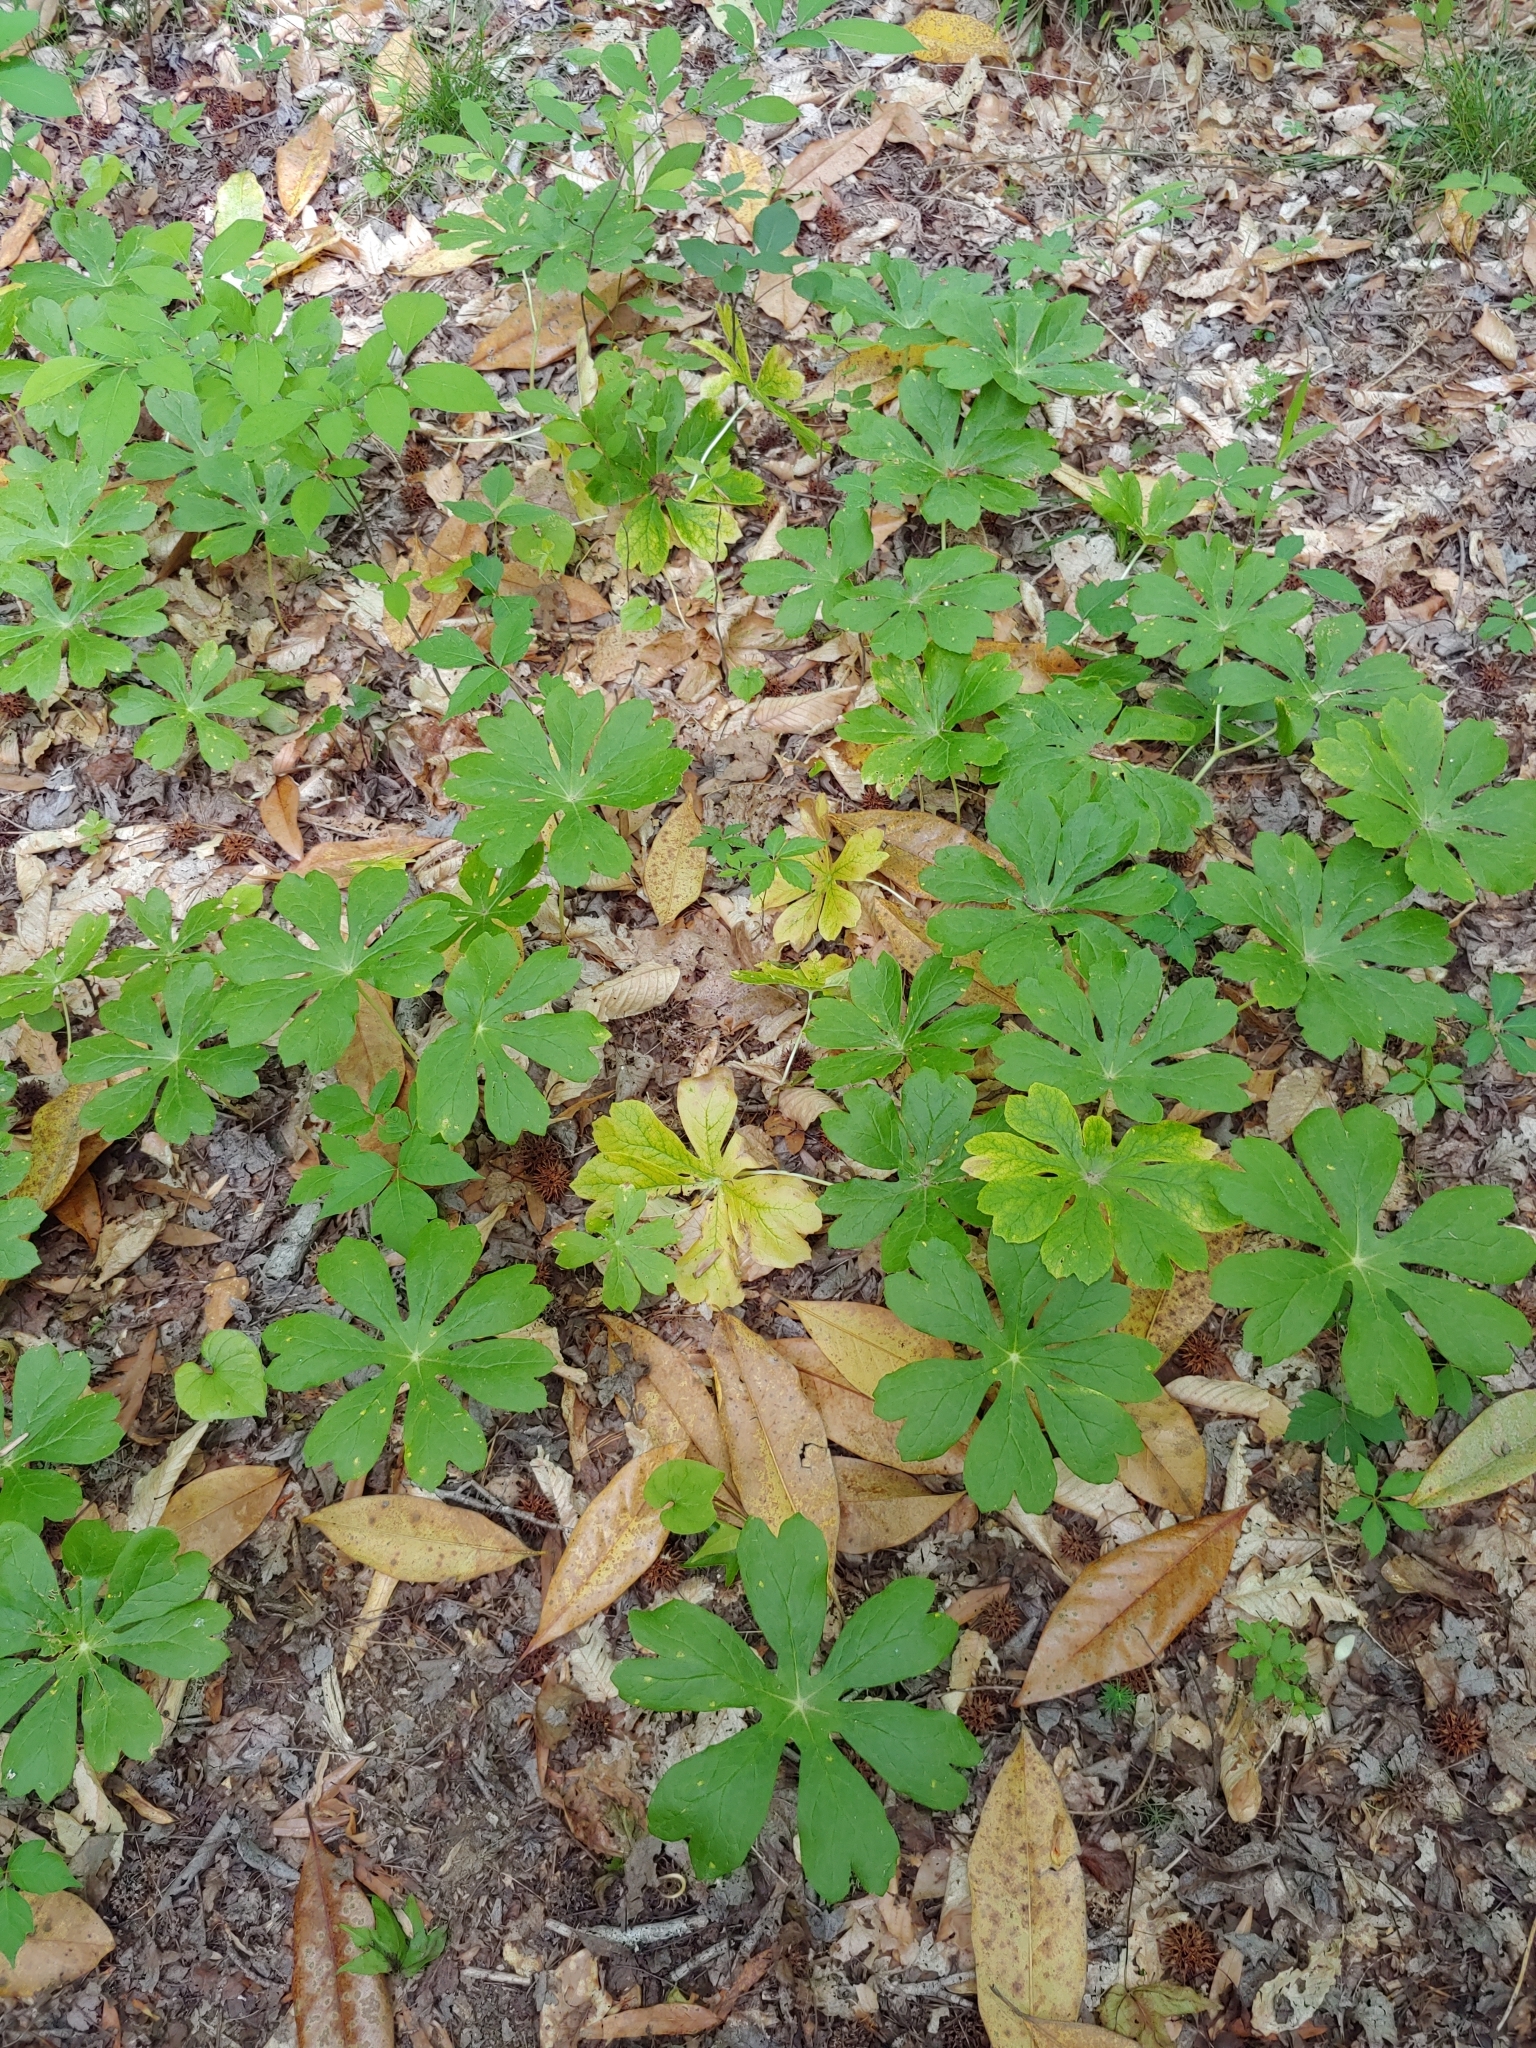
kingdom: Plantae
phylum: Tracheophyta
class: Magnoliopsida
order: Ranunculales
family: Berberidaceae
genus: Podophyllum
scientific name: Podophyllum peltatum
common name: Wild mandrake
